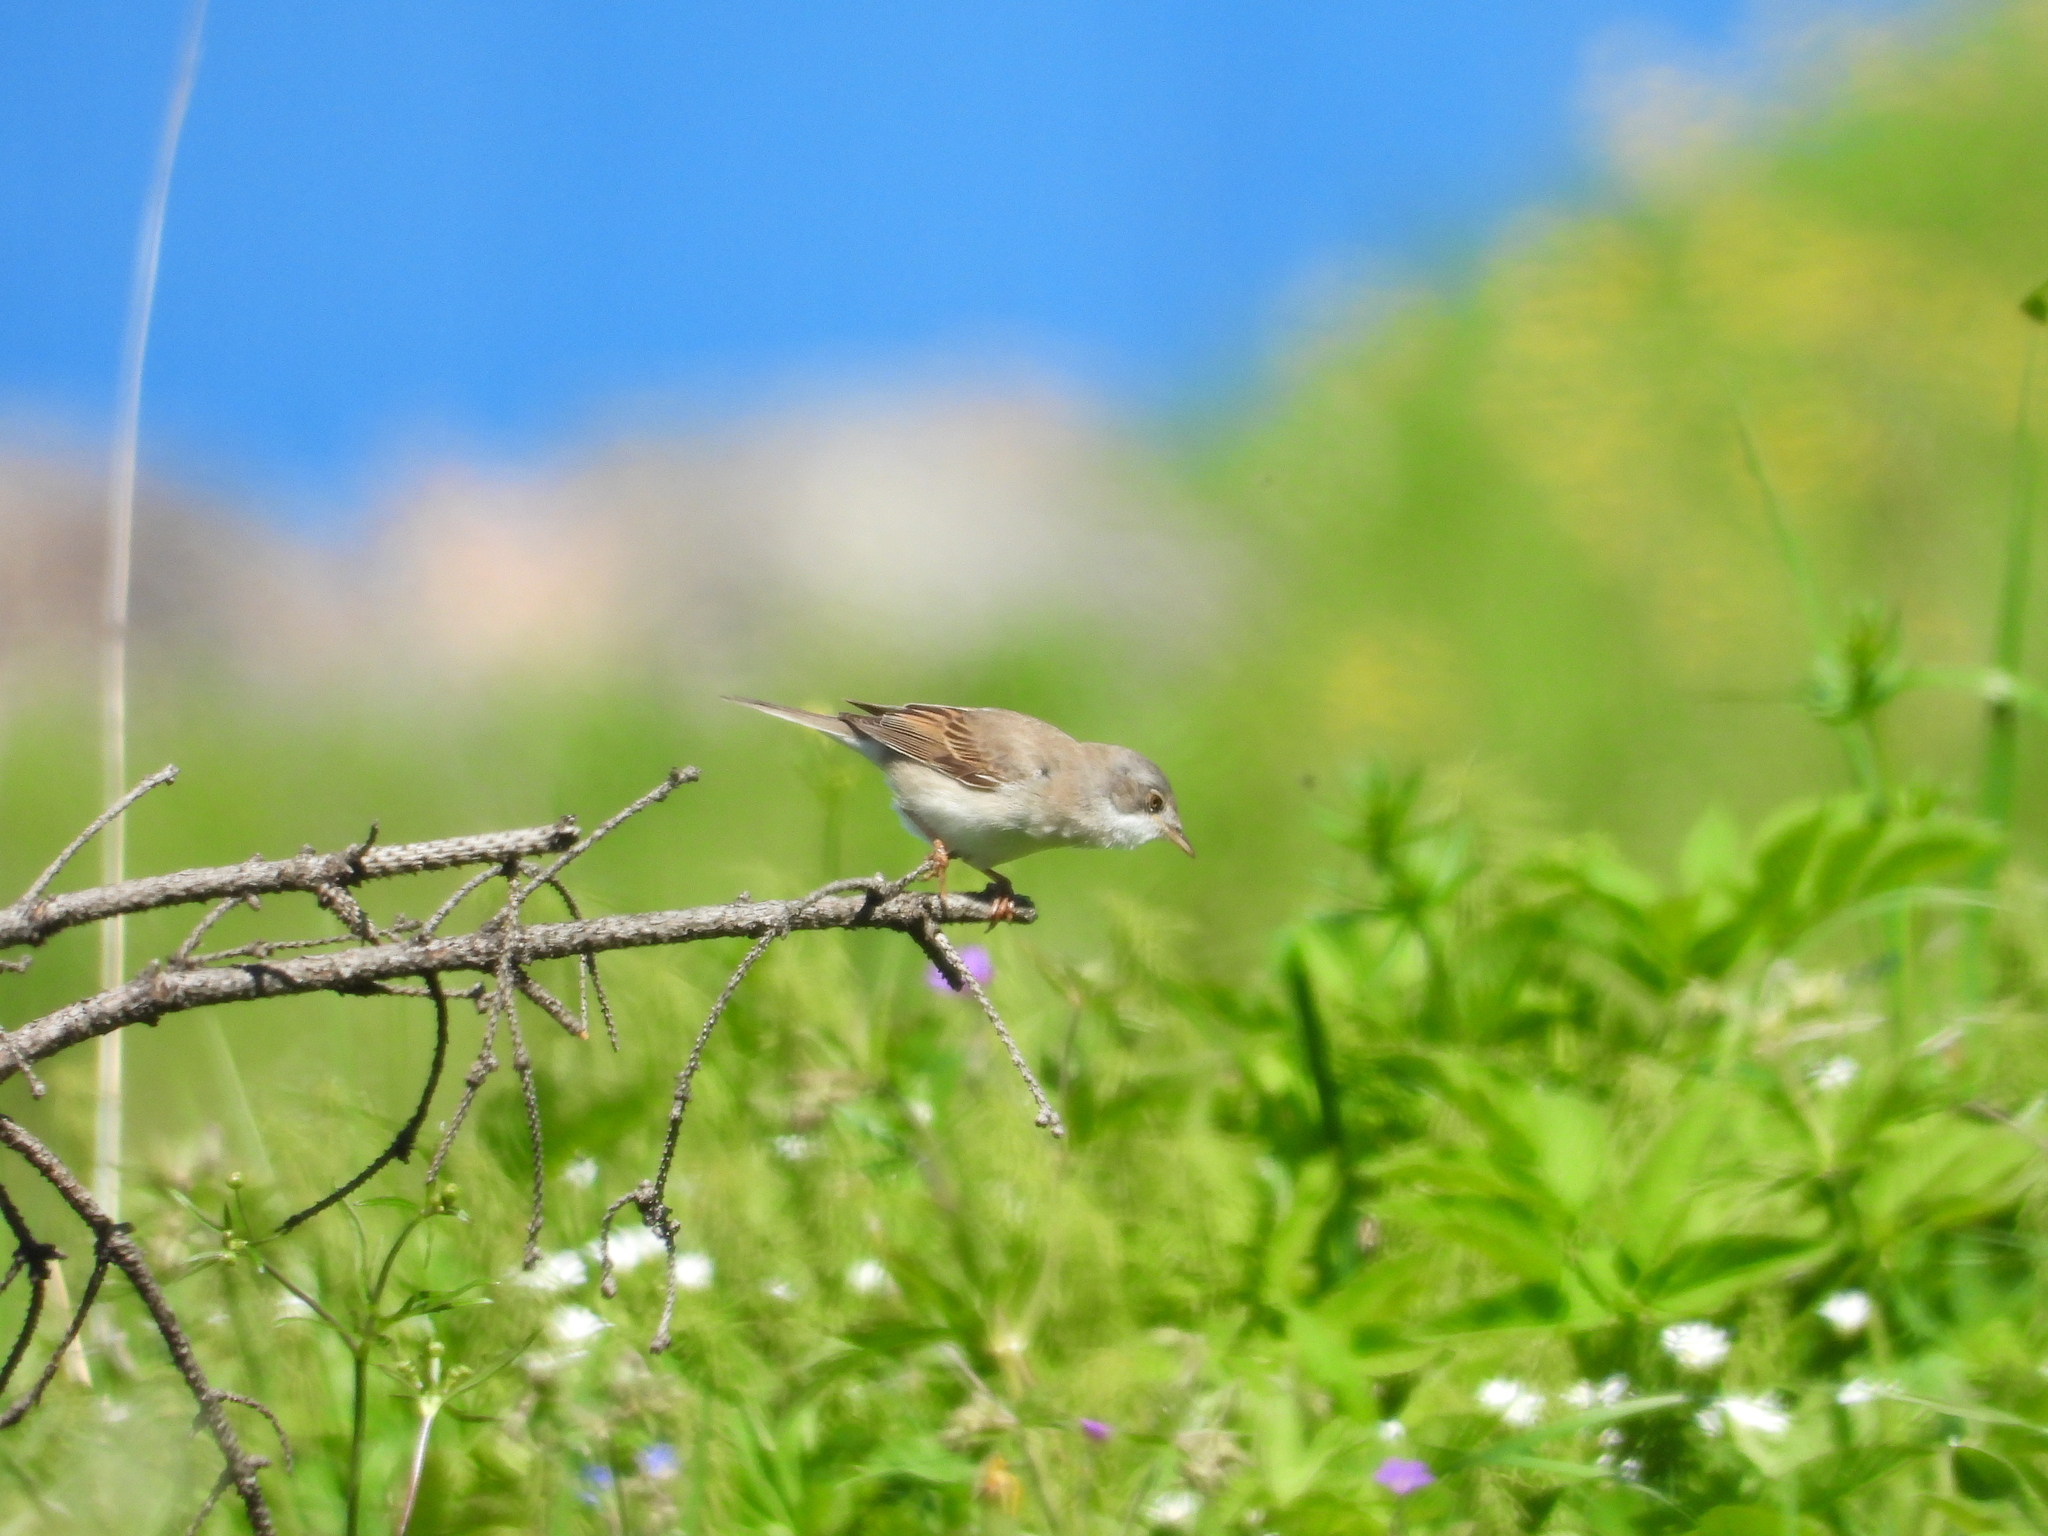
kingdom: Animalia
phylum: Chordata
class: Aves
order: Passeriformes
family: Sylviidae
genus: Sylvia
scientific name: Sylvia communis
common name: Common whitethroat
